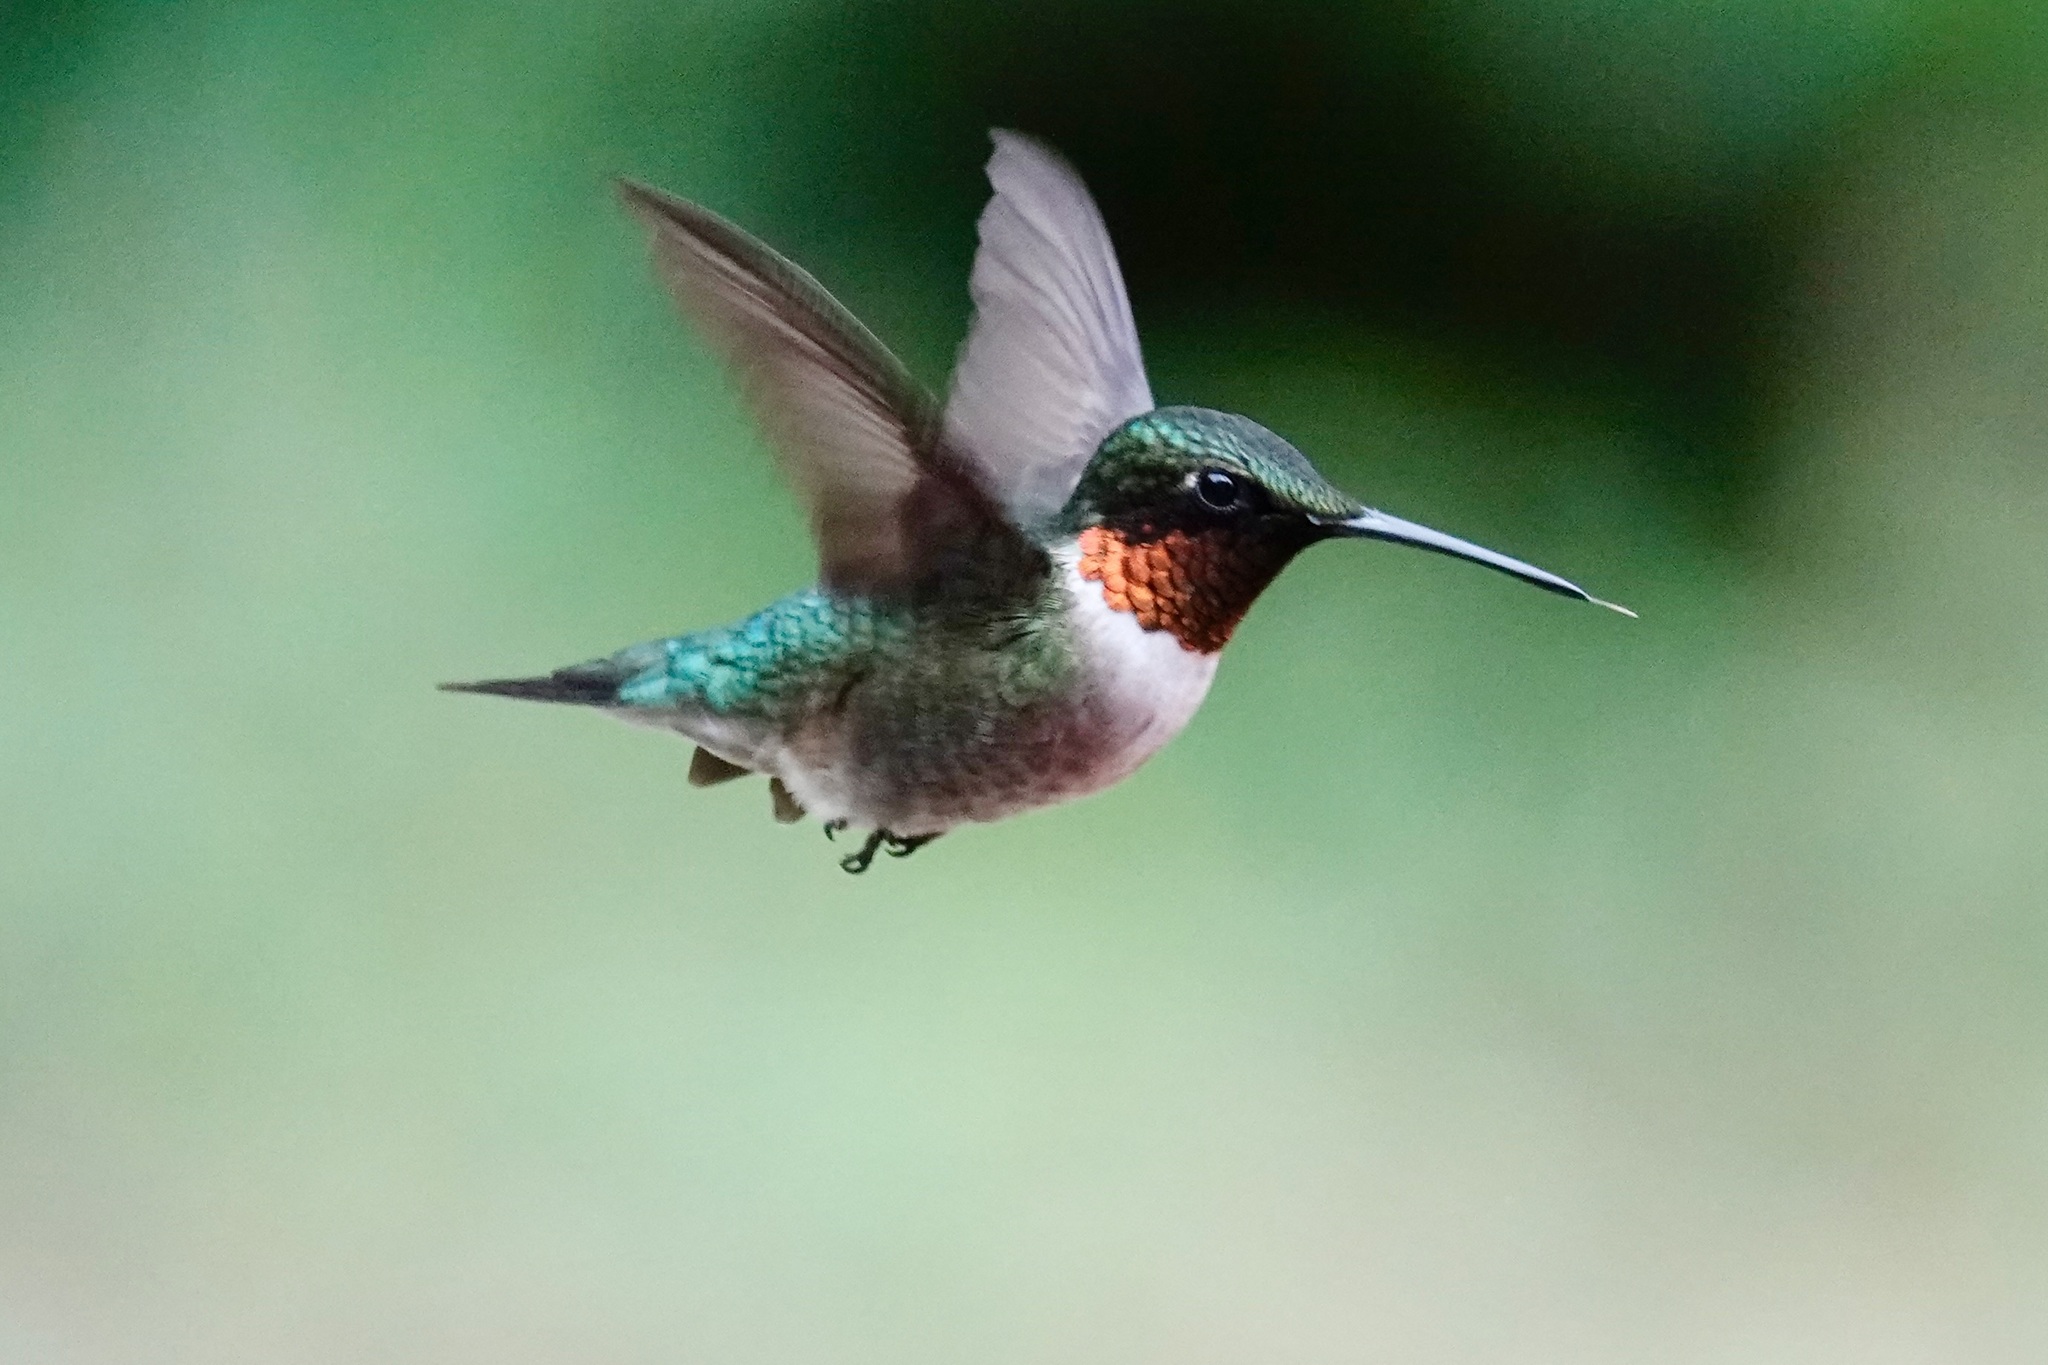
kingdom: Animalia
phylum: Chordata
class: Aves
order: Apodiformes
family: Trochilidae
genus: Archilochus
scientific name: Archilochus colubris
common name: Ruby-throated hummingbird
